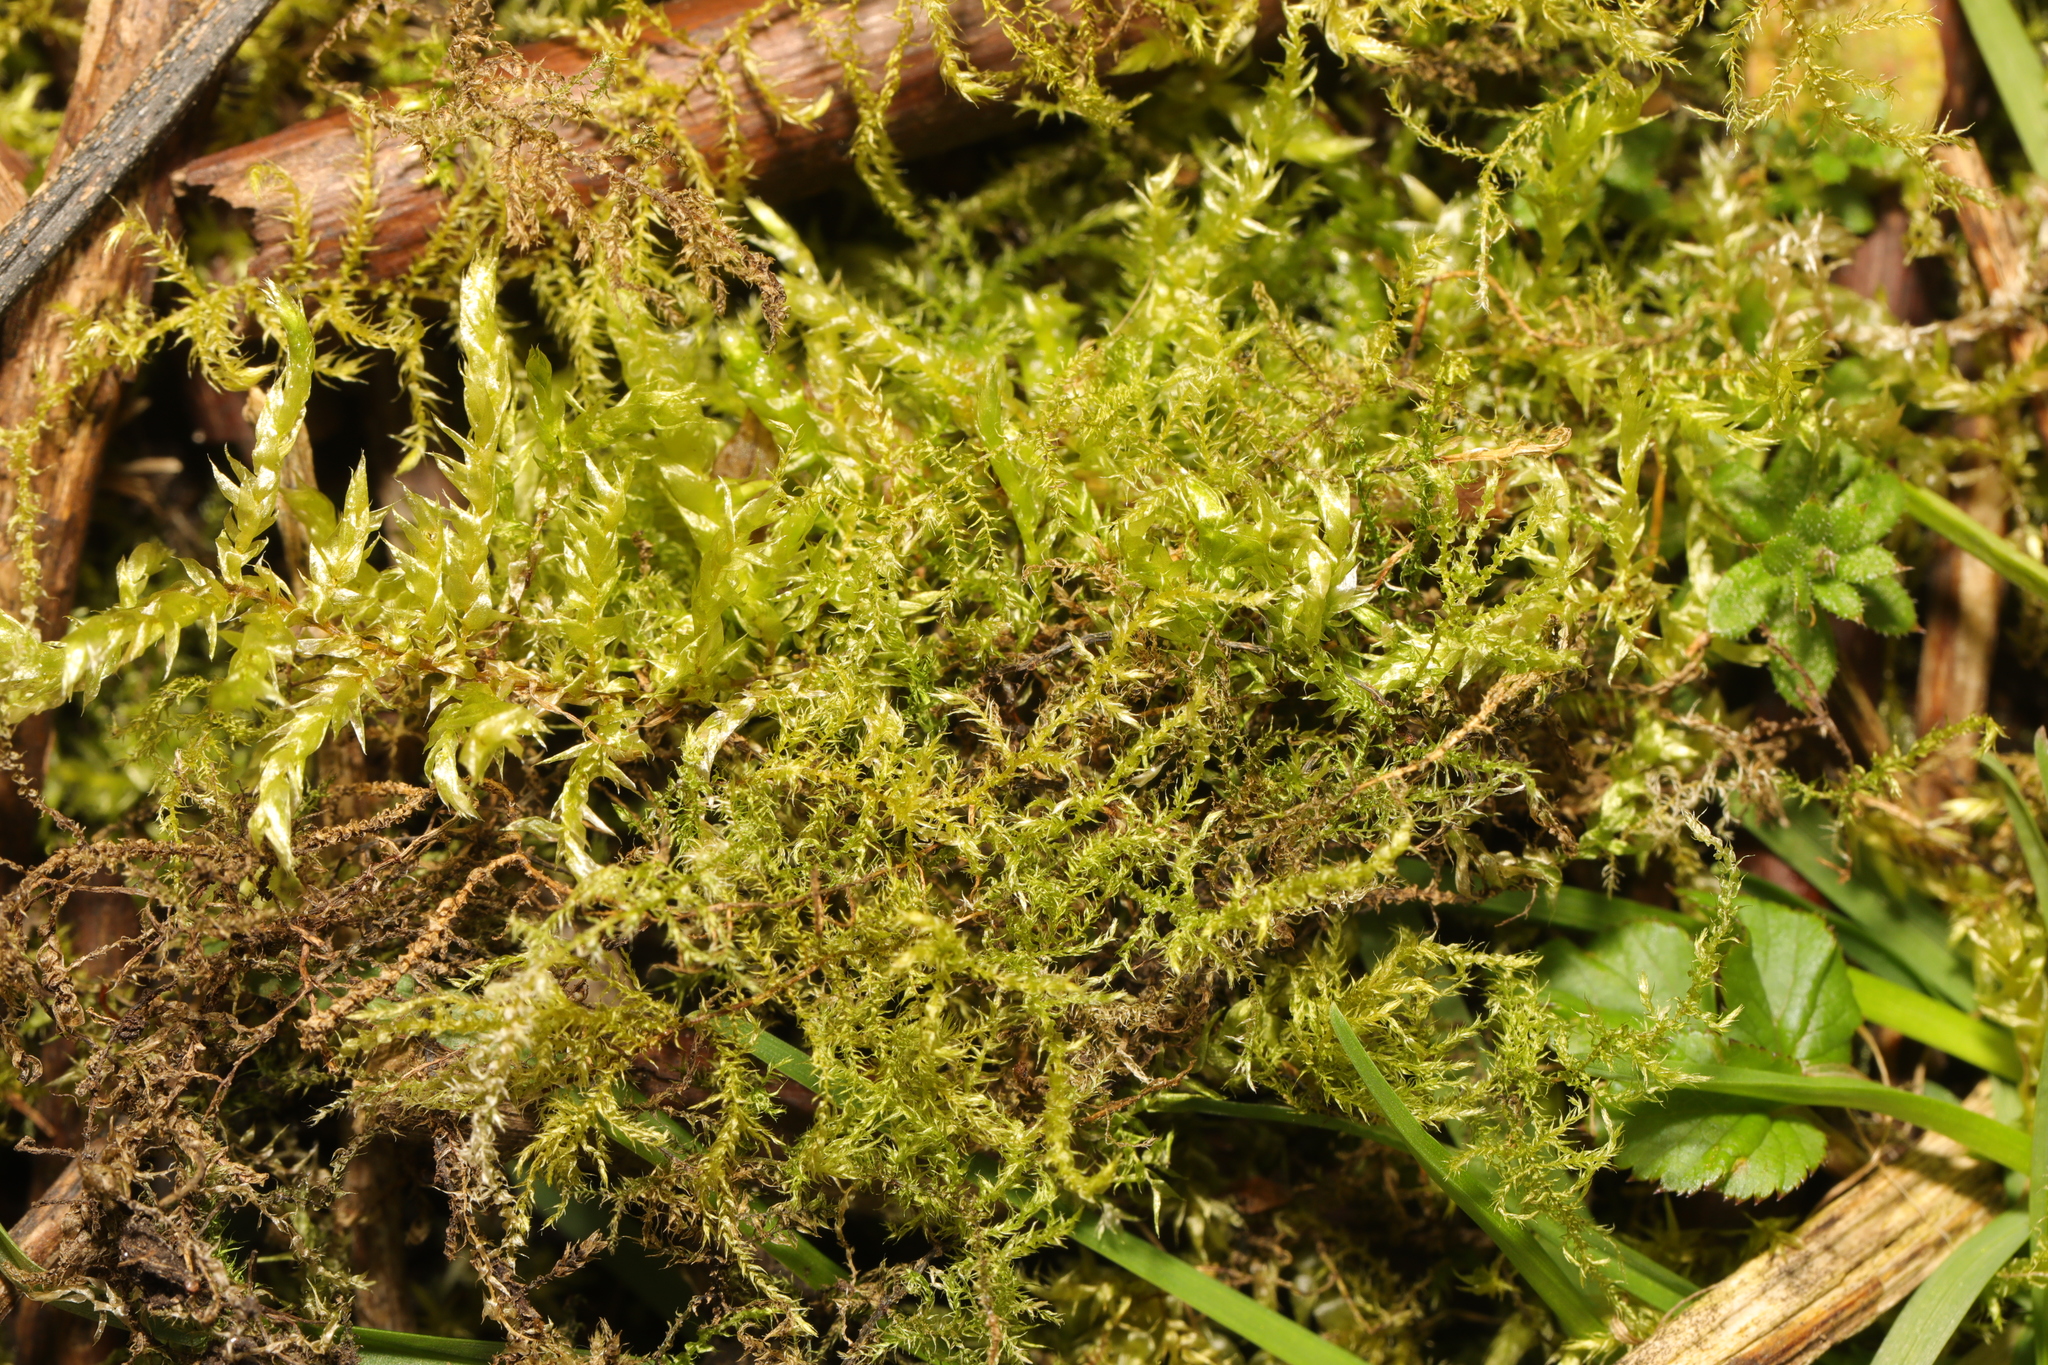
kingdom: Plantae
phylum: Bryophyta
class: Bryopsida
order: Hypnales
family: Brachytheciaceae
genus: Oxyrrhynchium
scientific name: Oxyrrhynchium hians
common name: Spreading beaked moss
